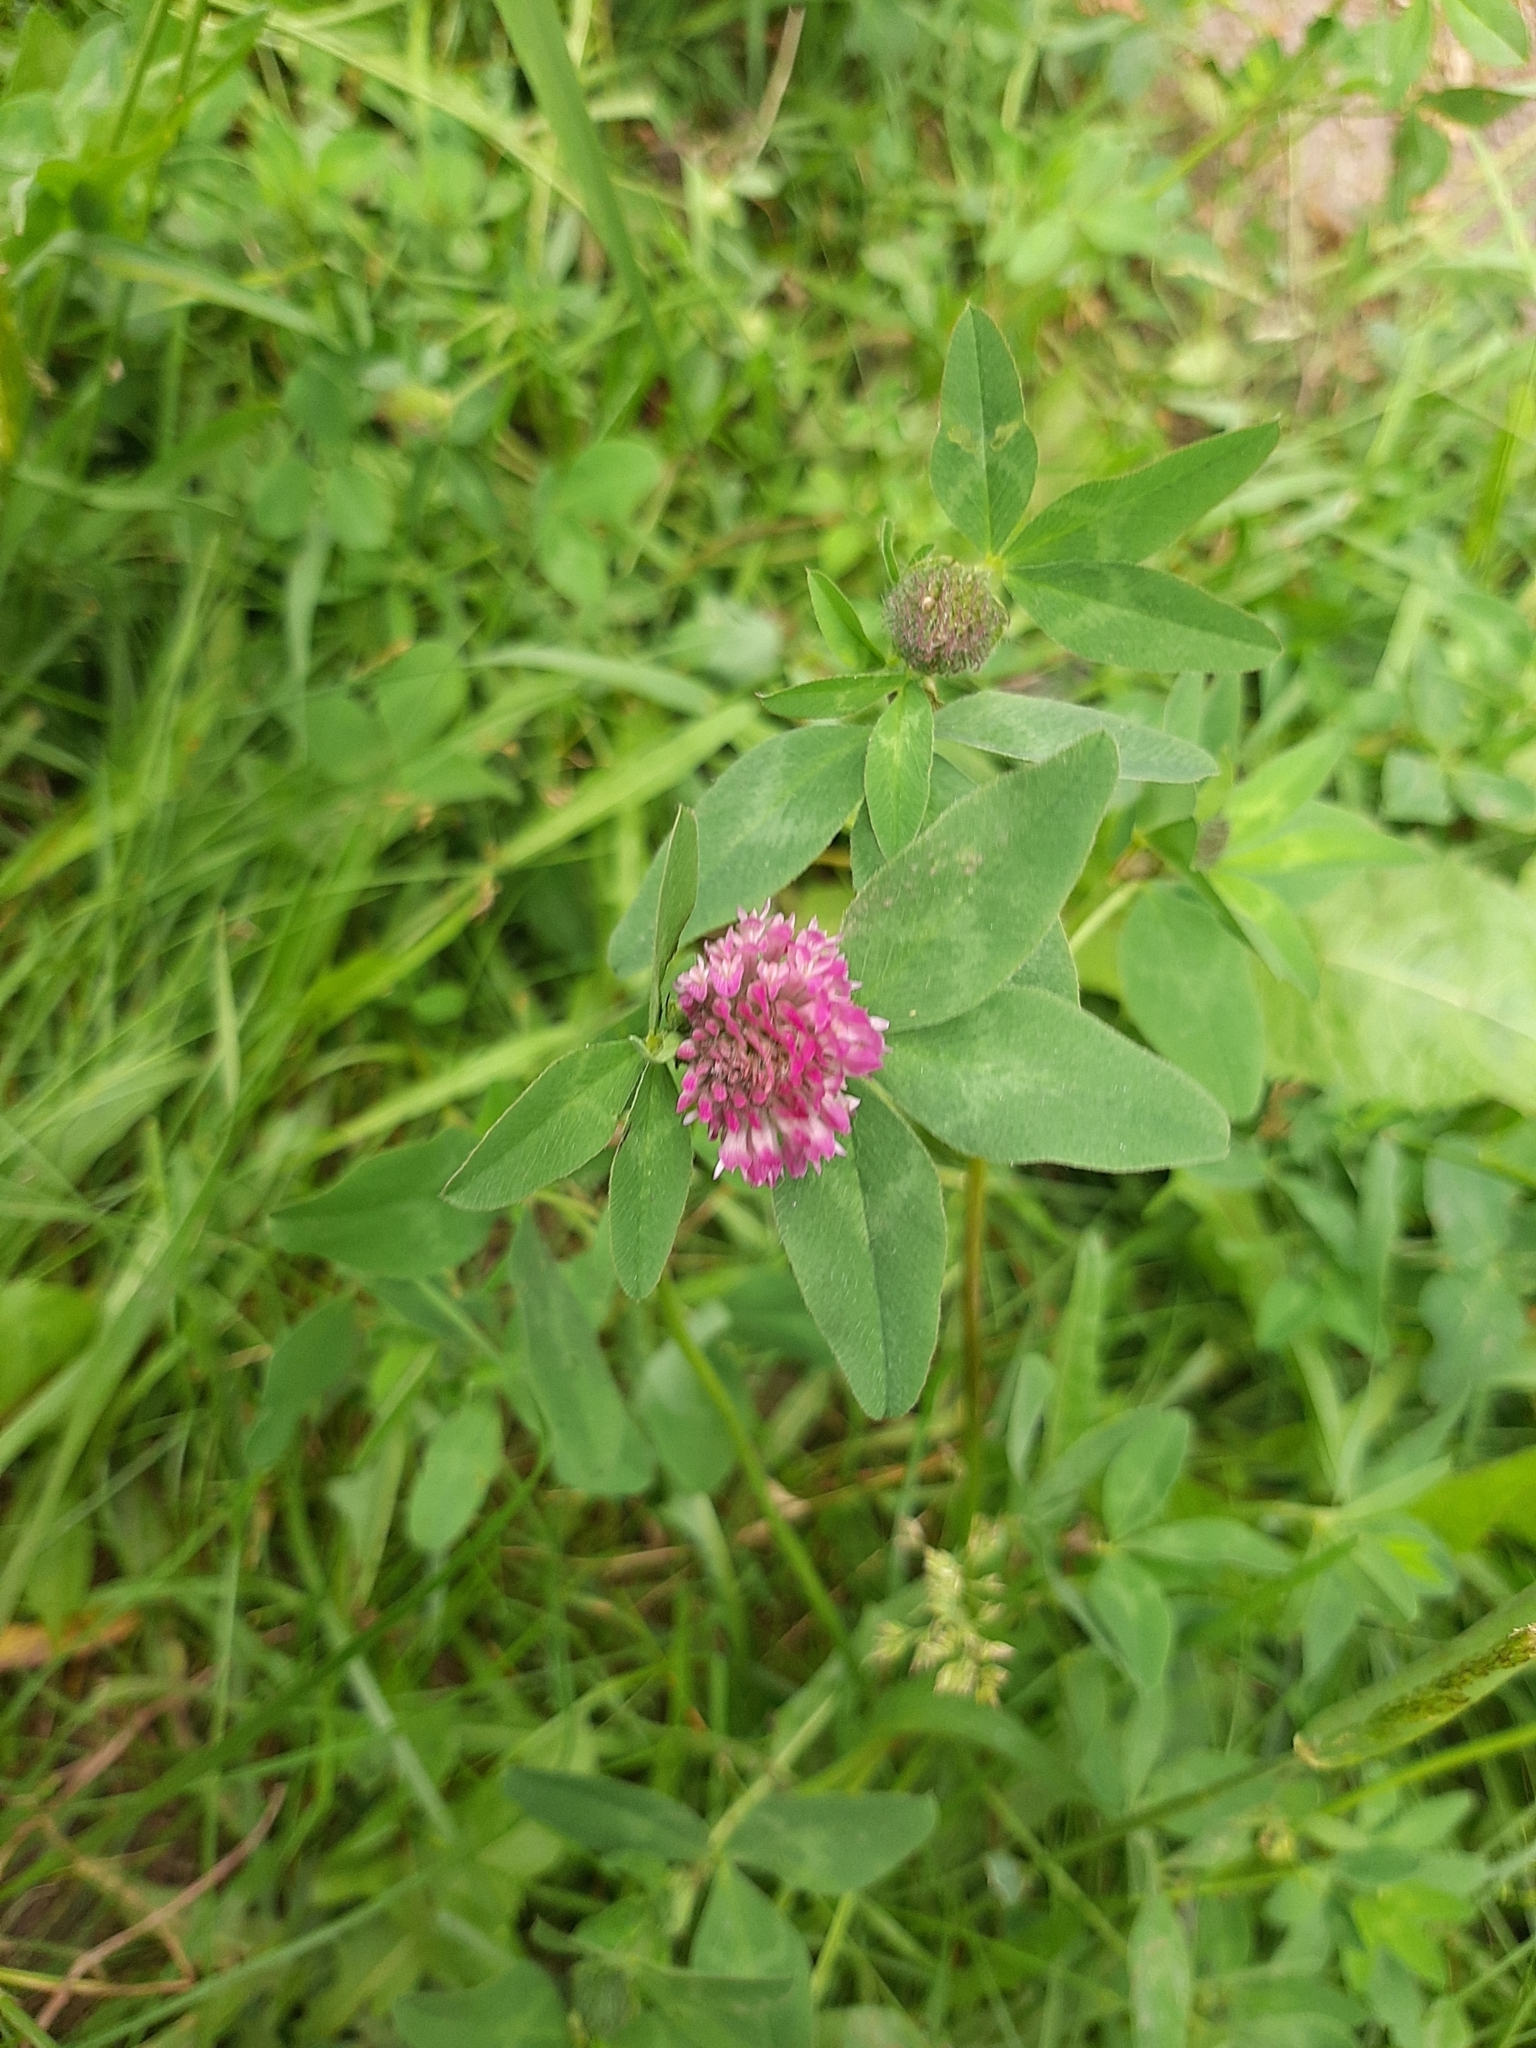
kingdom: Plantae
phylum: Tracheophyta
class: Magnoliopsida
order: Fabales
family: Fabaceae
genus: Trifolium
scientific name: Trifolium pratense
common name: Red clover
